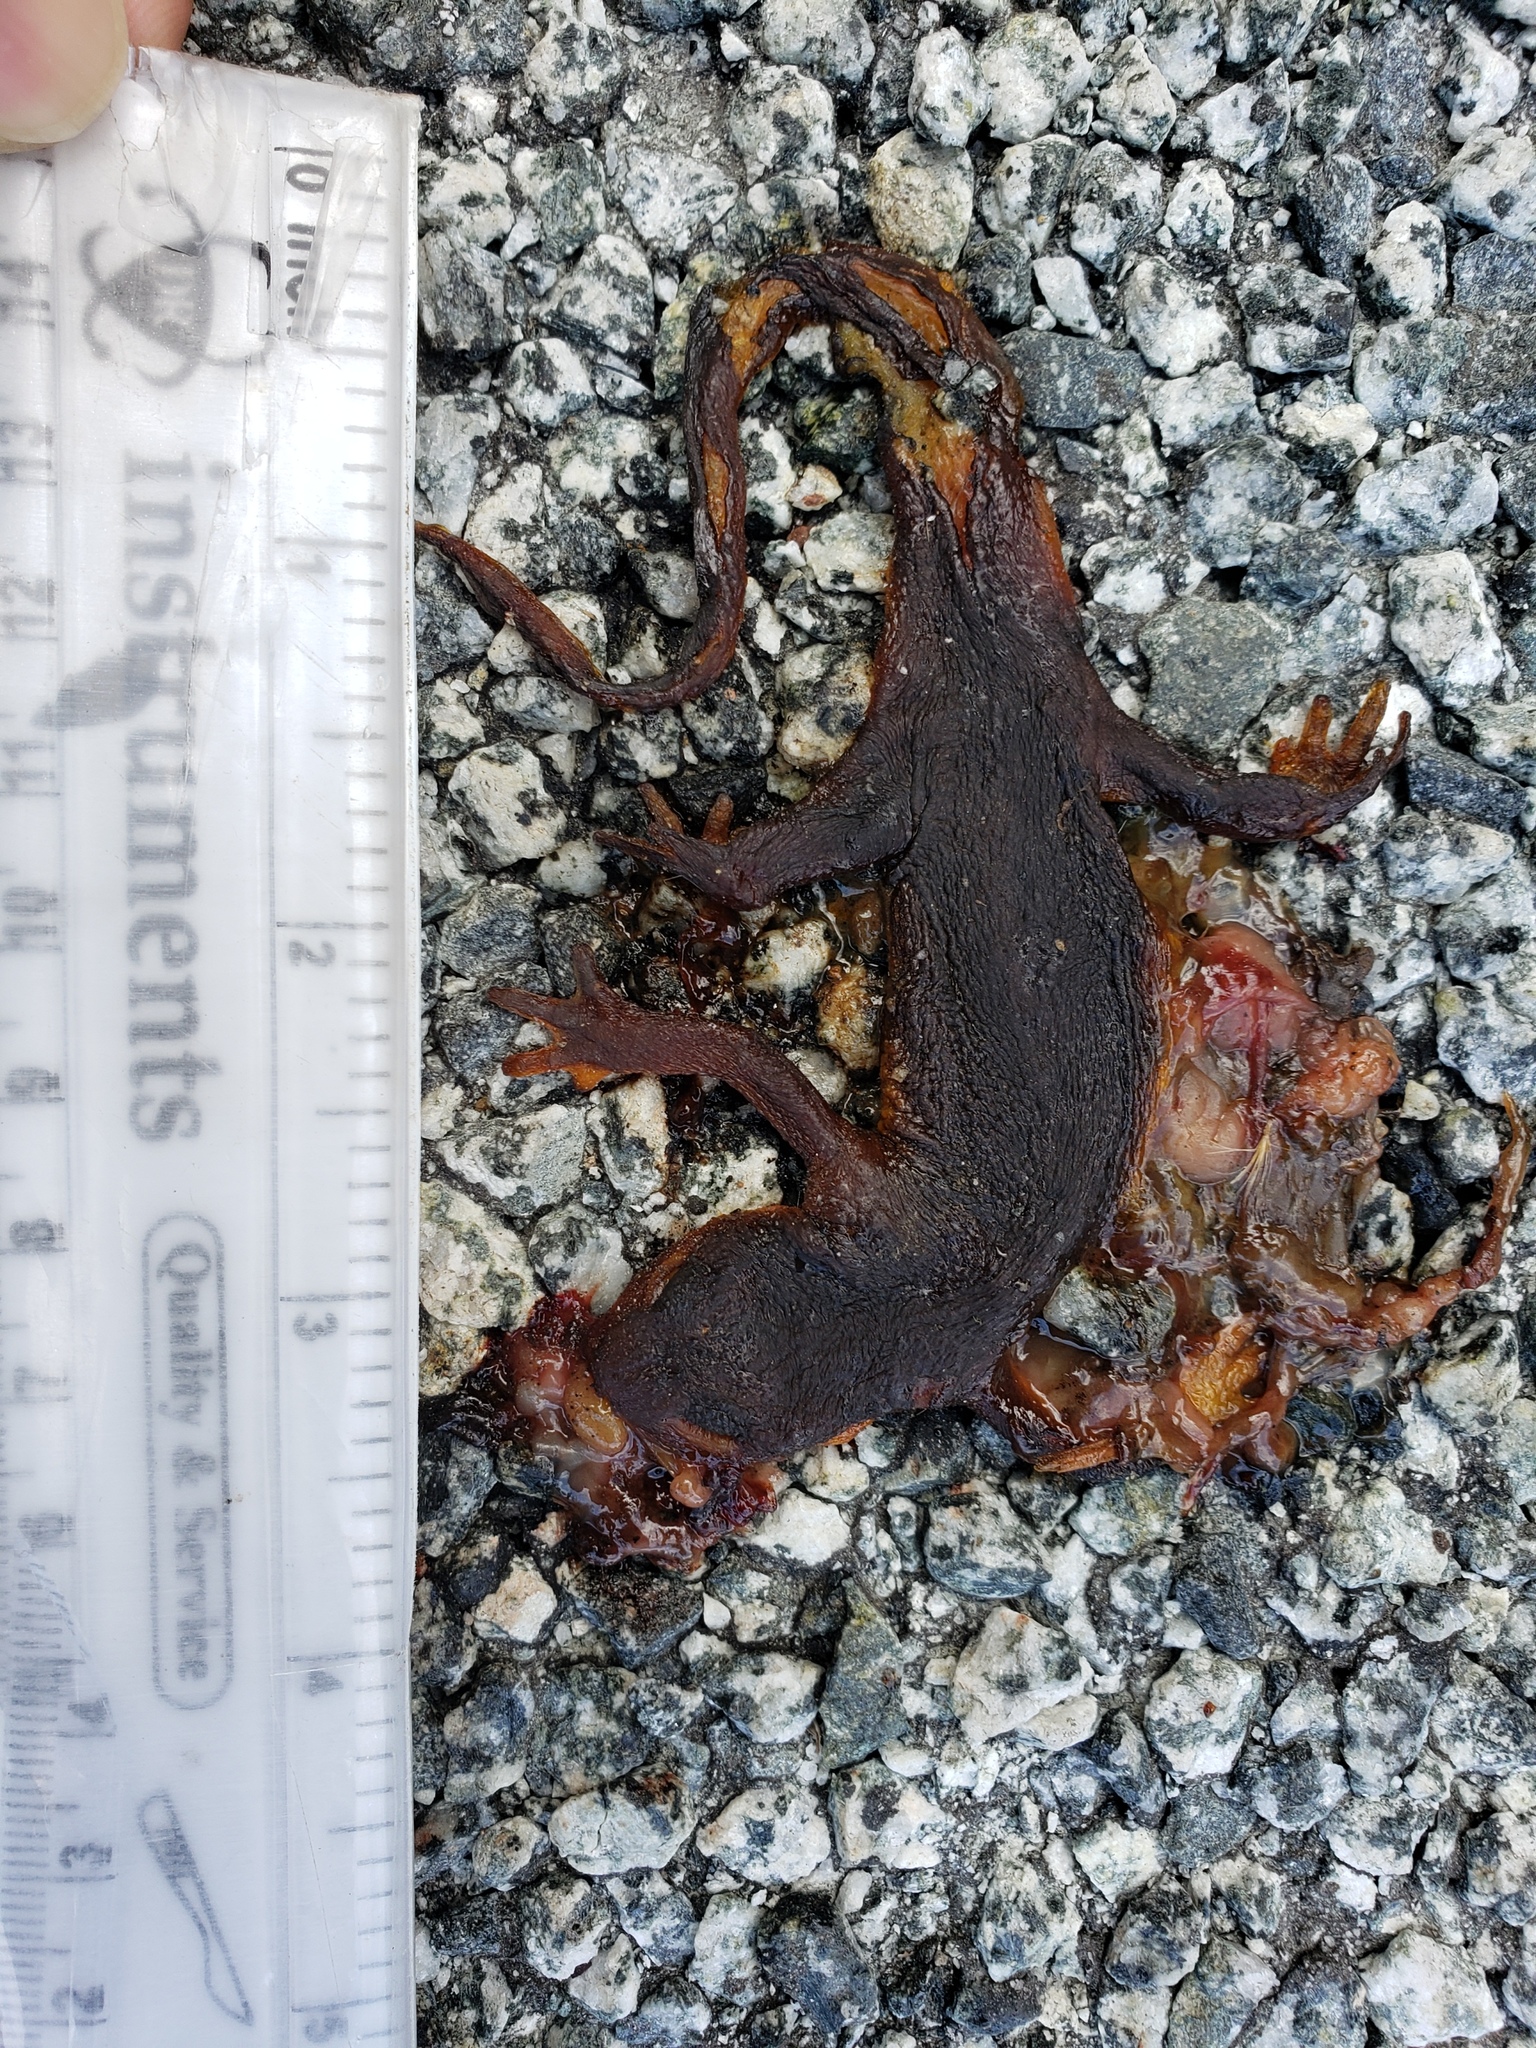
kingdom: Animalia
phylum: Chordata
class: Amphibia
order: Caudata
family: Salamandridae
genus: Taricha
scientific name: Taricha
